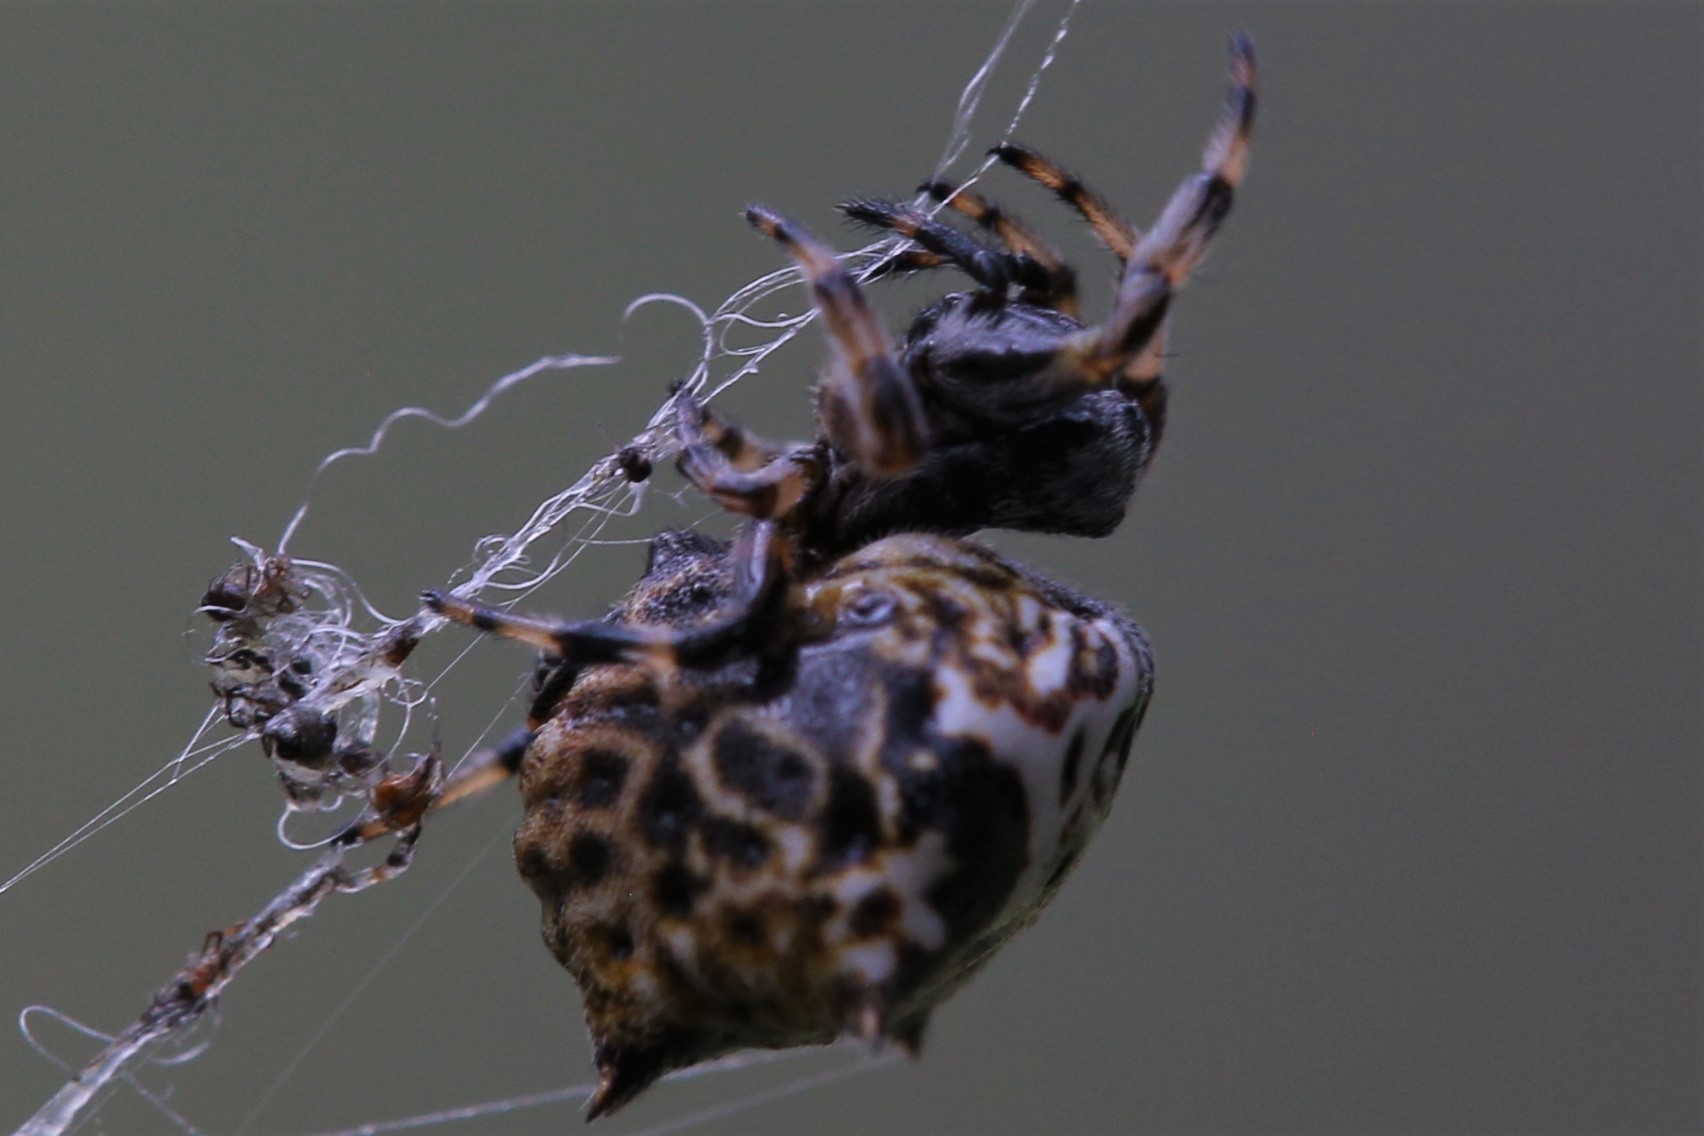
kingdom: Animalia
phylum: Arthropoda
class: Arachnida
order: Araneae
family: Araneidae
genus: Gasteracantha
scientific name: Gasteracantha sacerdotalis
